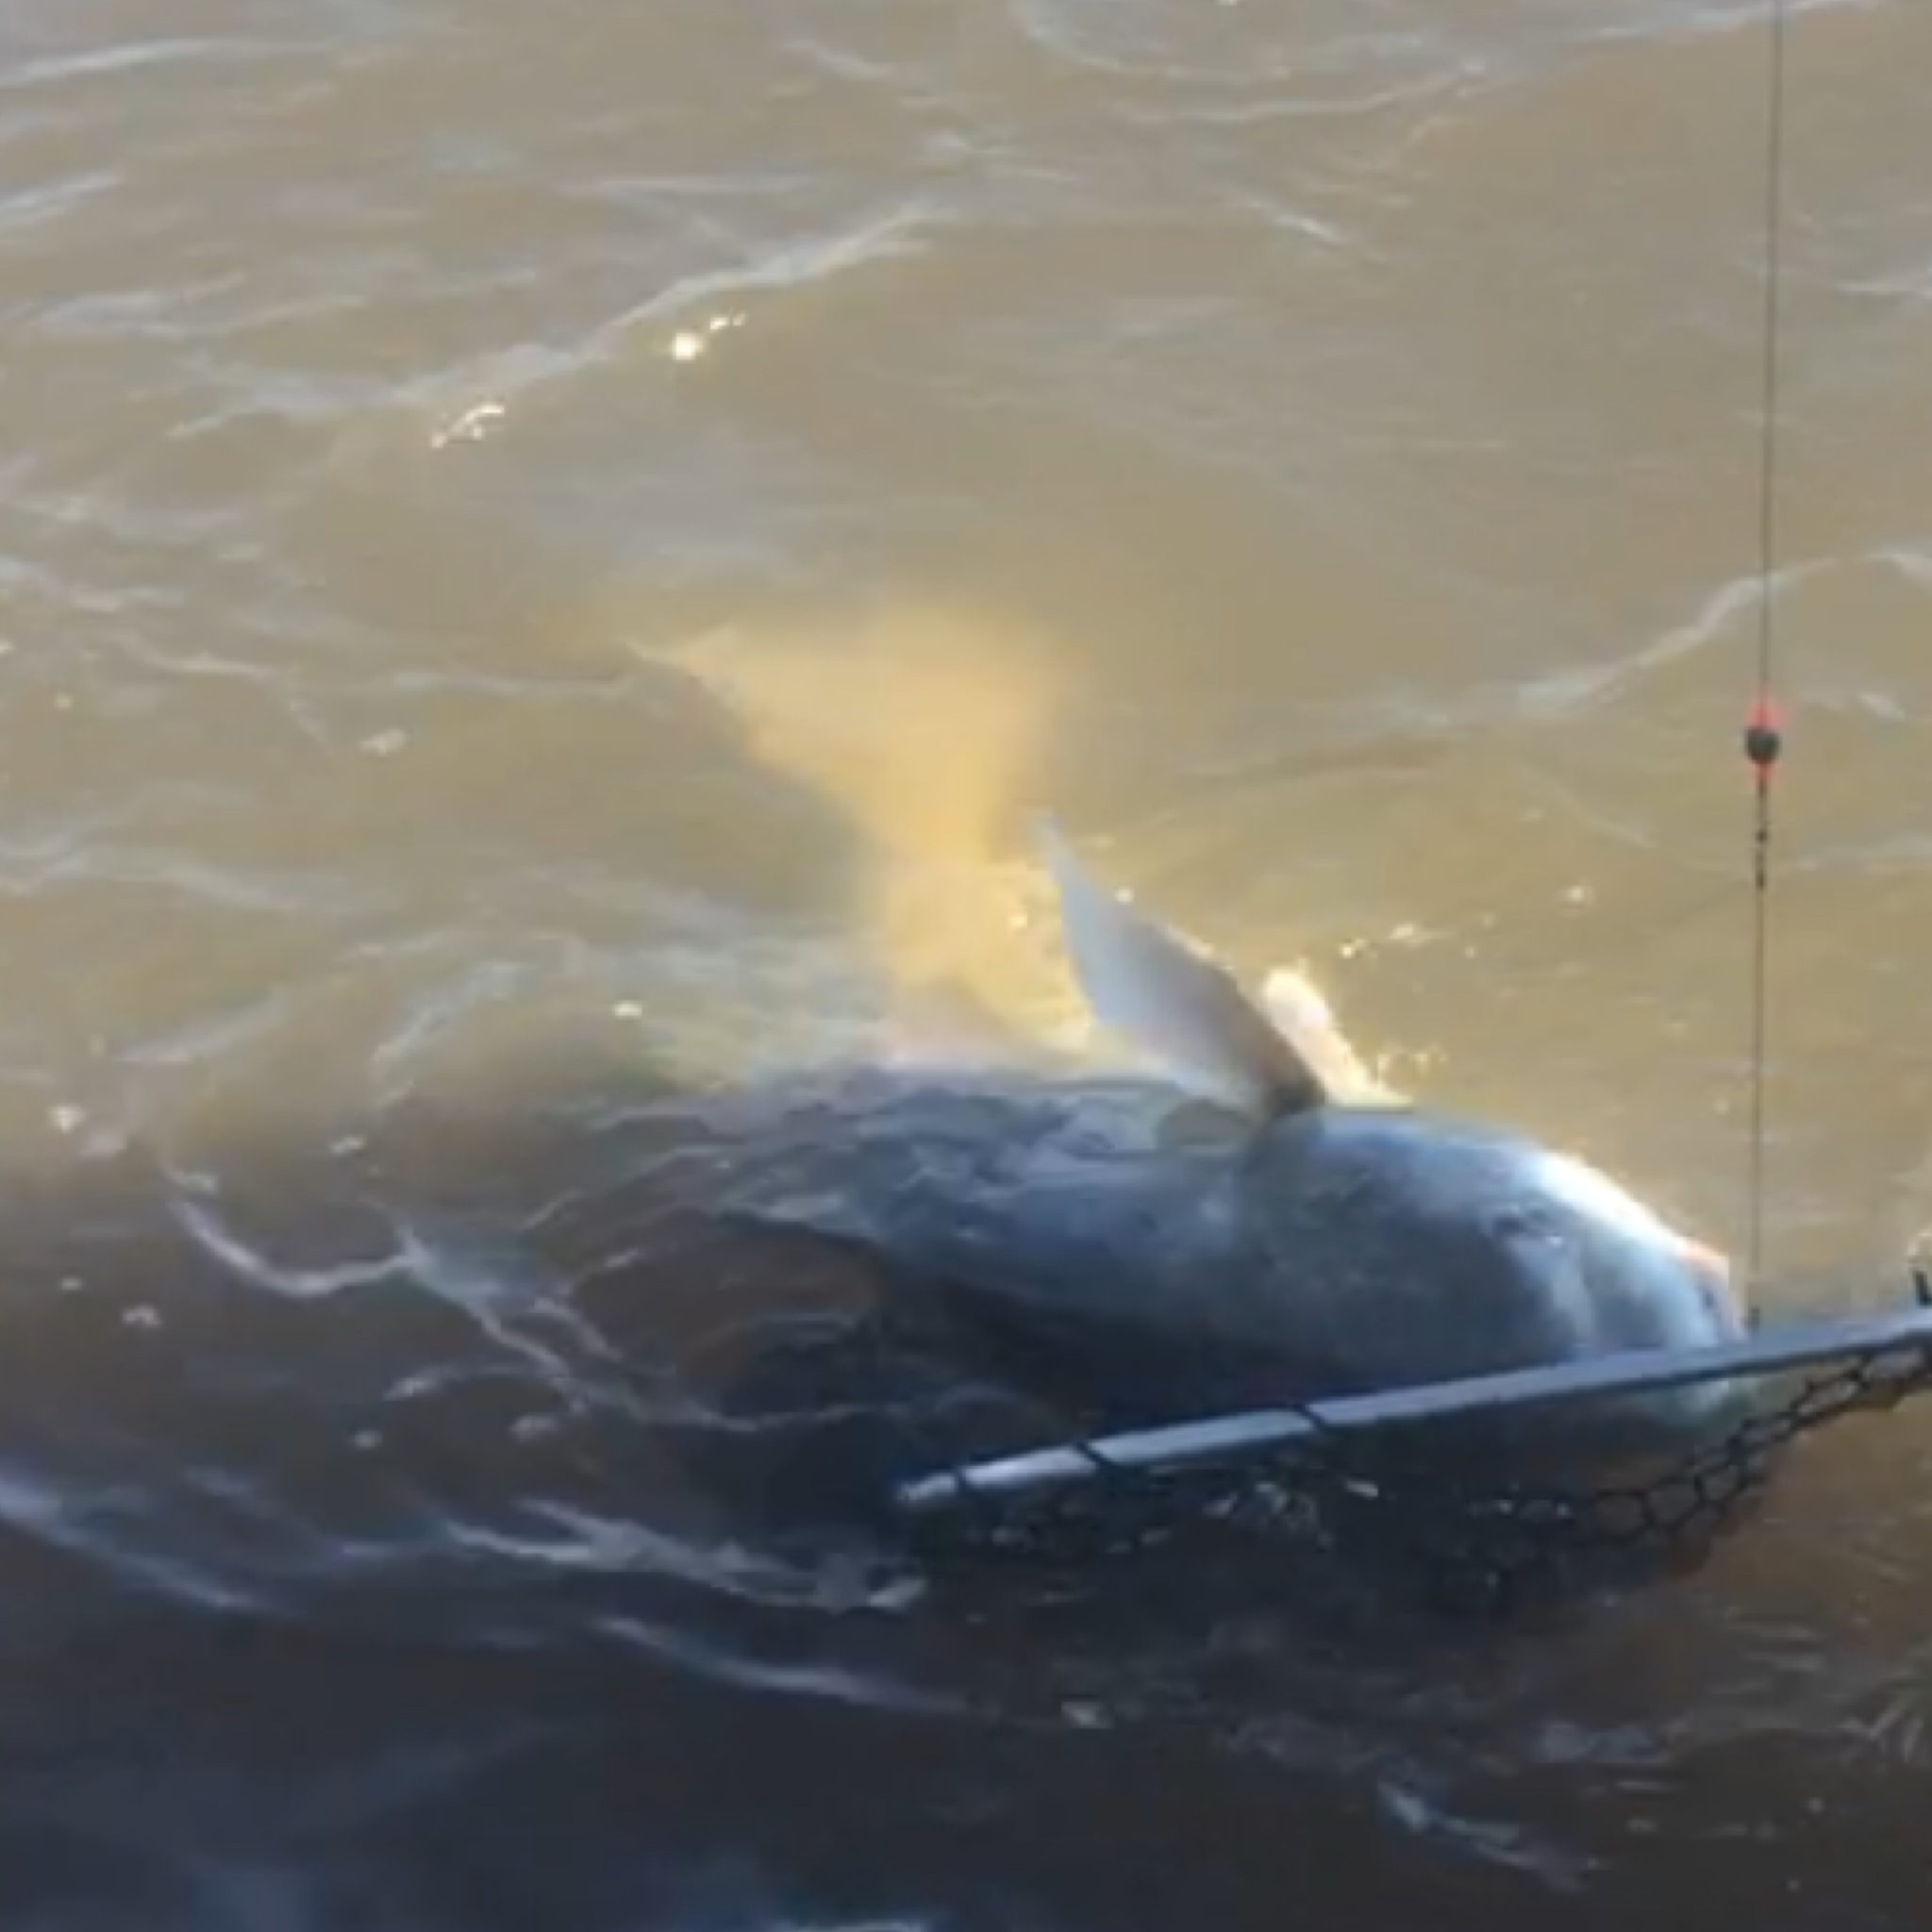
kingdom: Animalia
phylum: Chordata
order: Perciformes
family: Sciaenidae
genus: Pogonias
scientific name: Pogonias cromis
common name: Black drum
